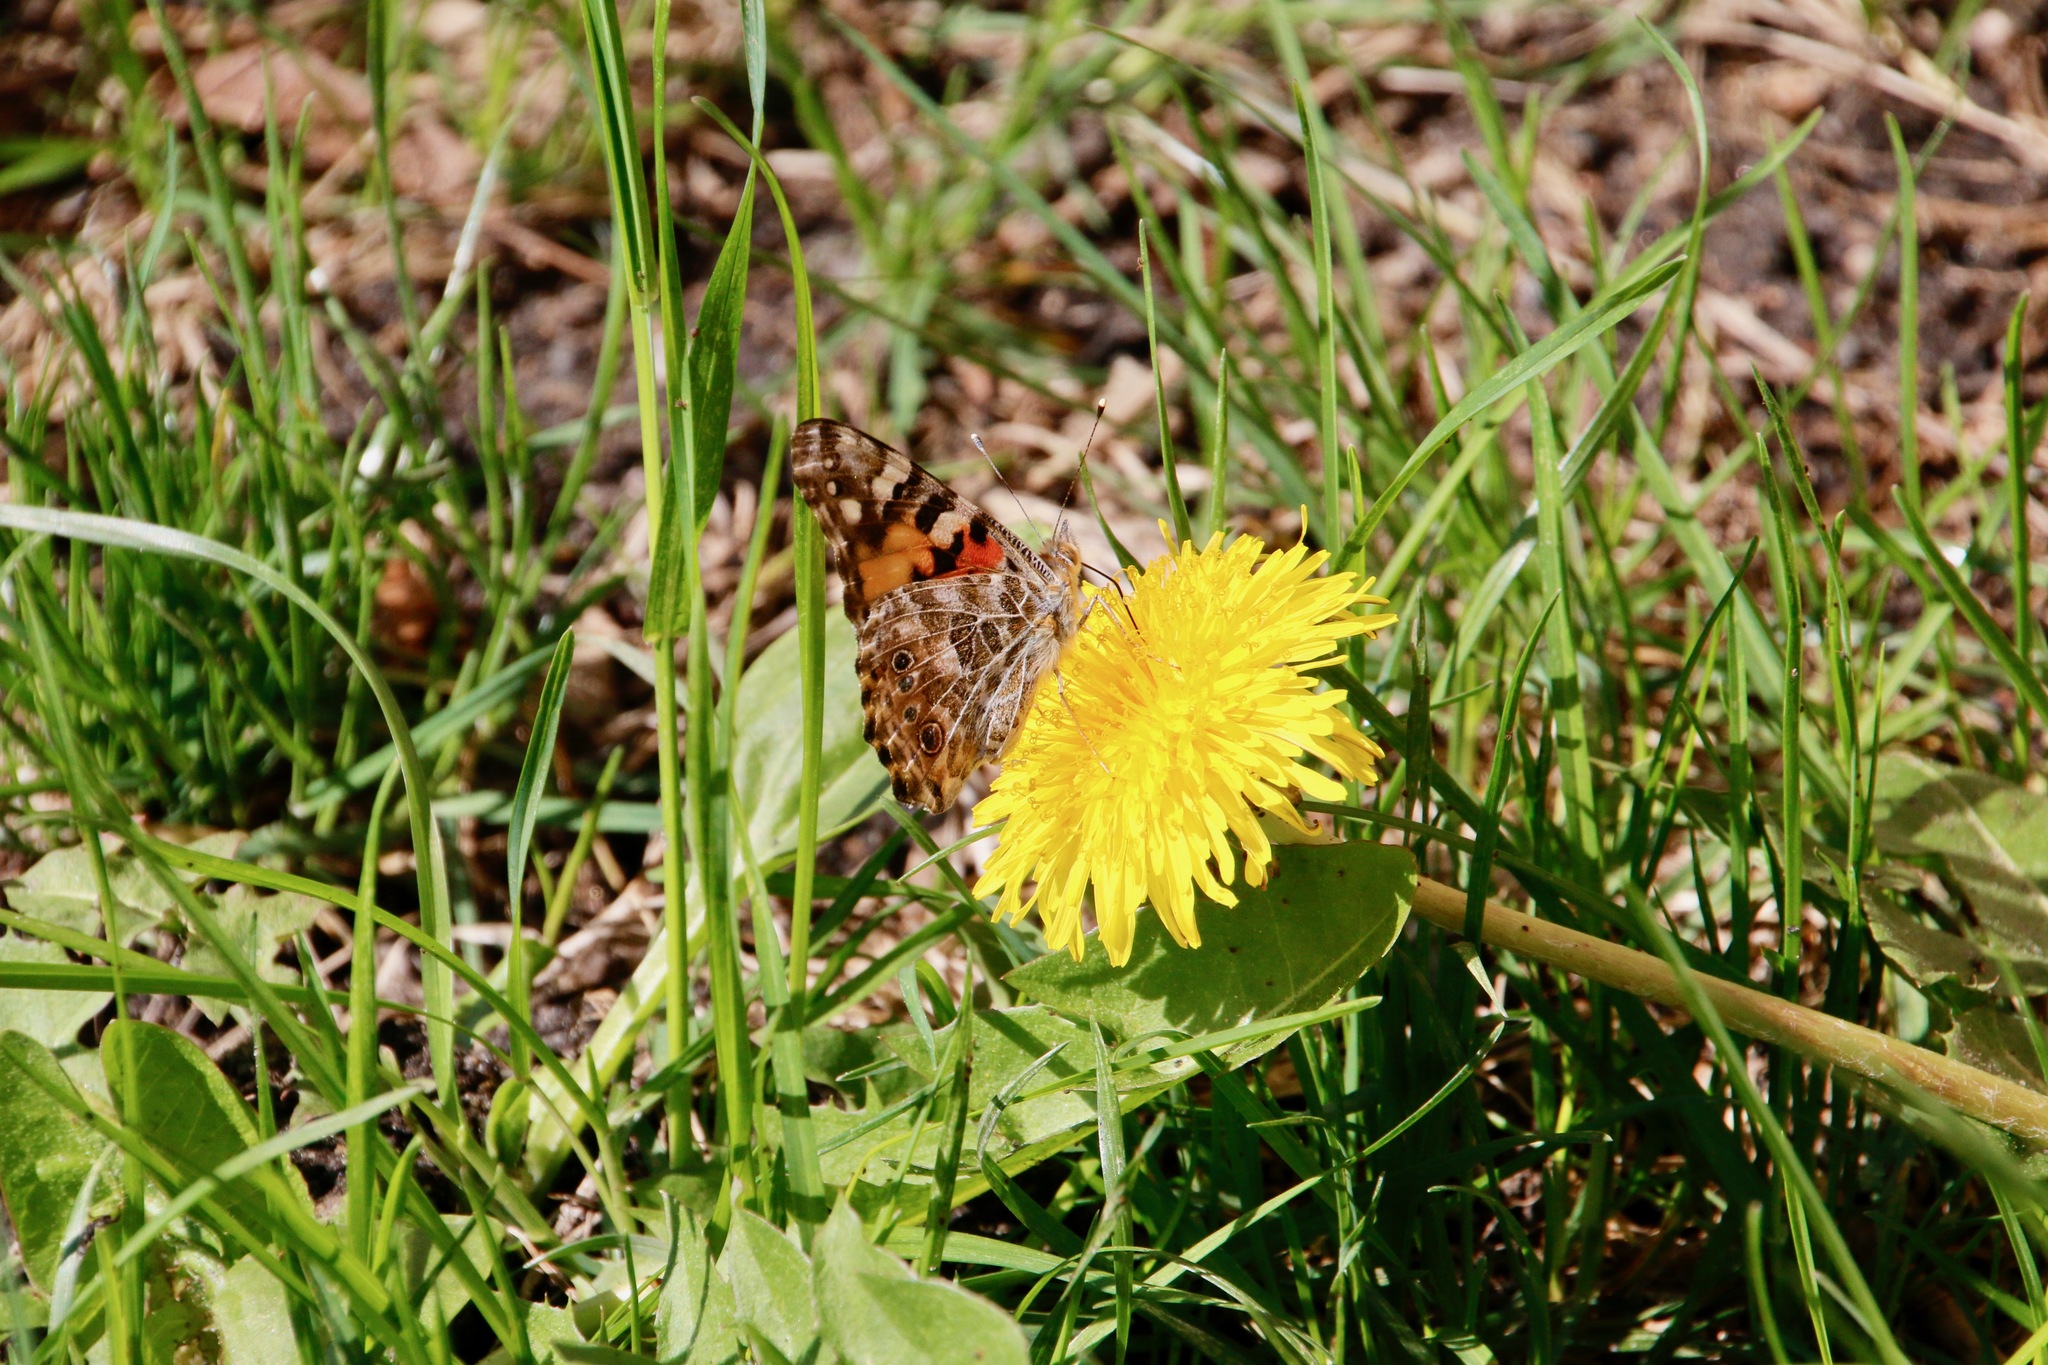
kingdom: Animalia
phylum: Arthropoda
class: Insecta
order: Lepidoptera
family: Nymphalidae
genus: Vanessa
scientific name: Vanessa cardui
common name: Painted lady
